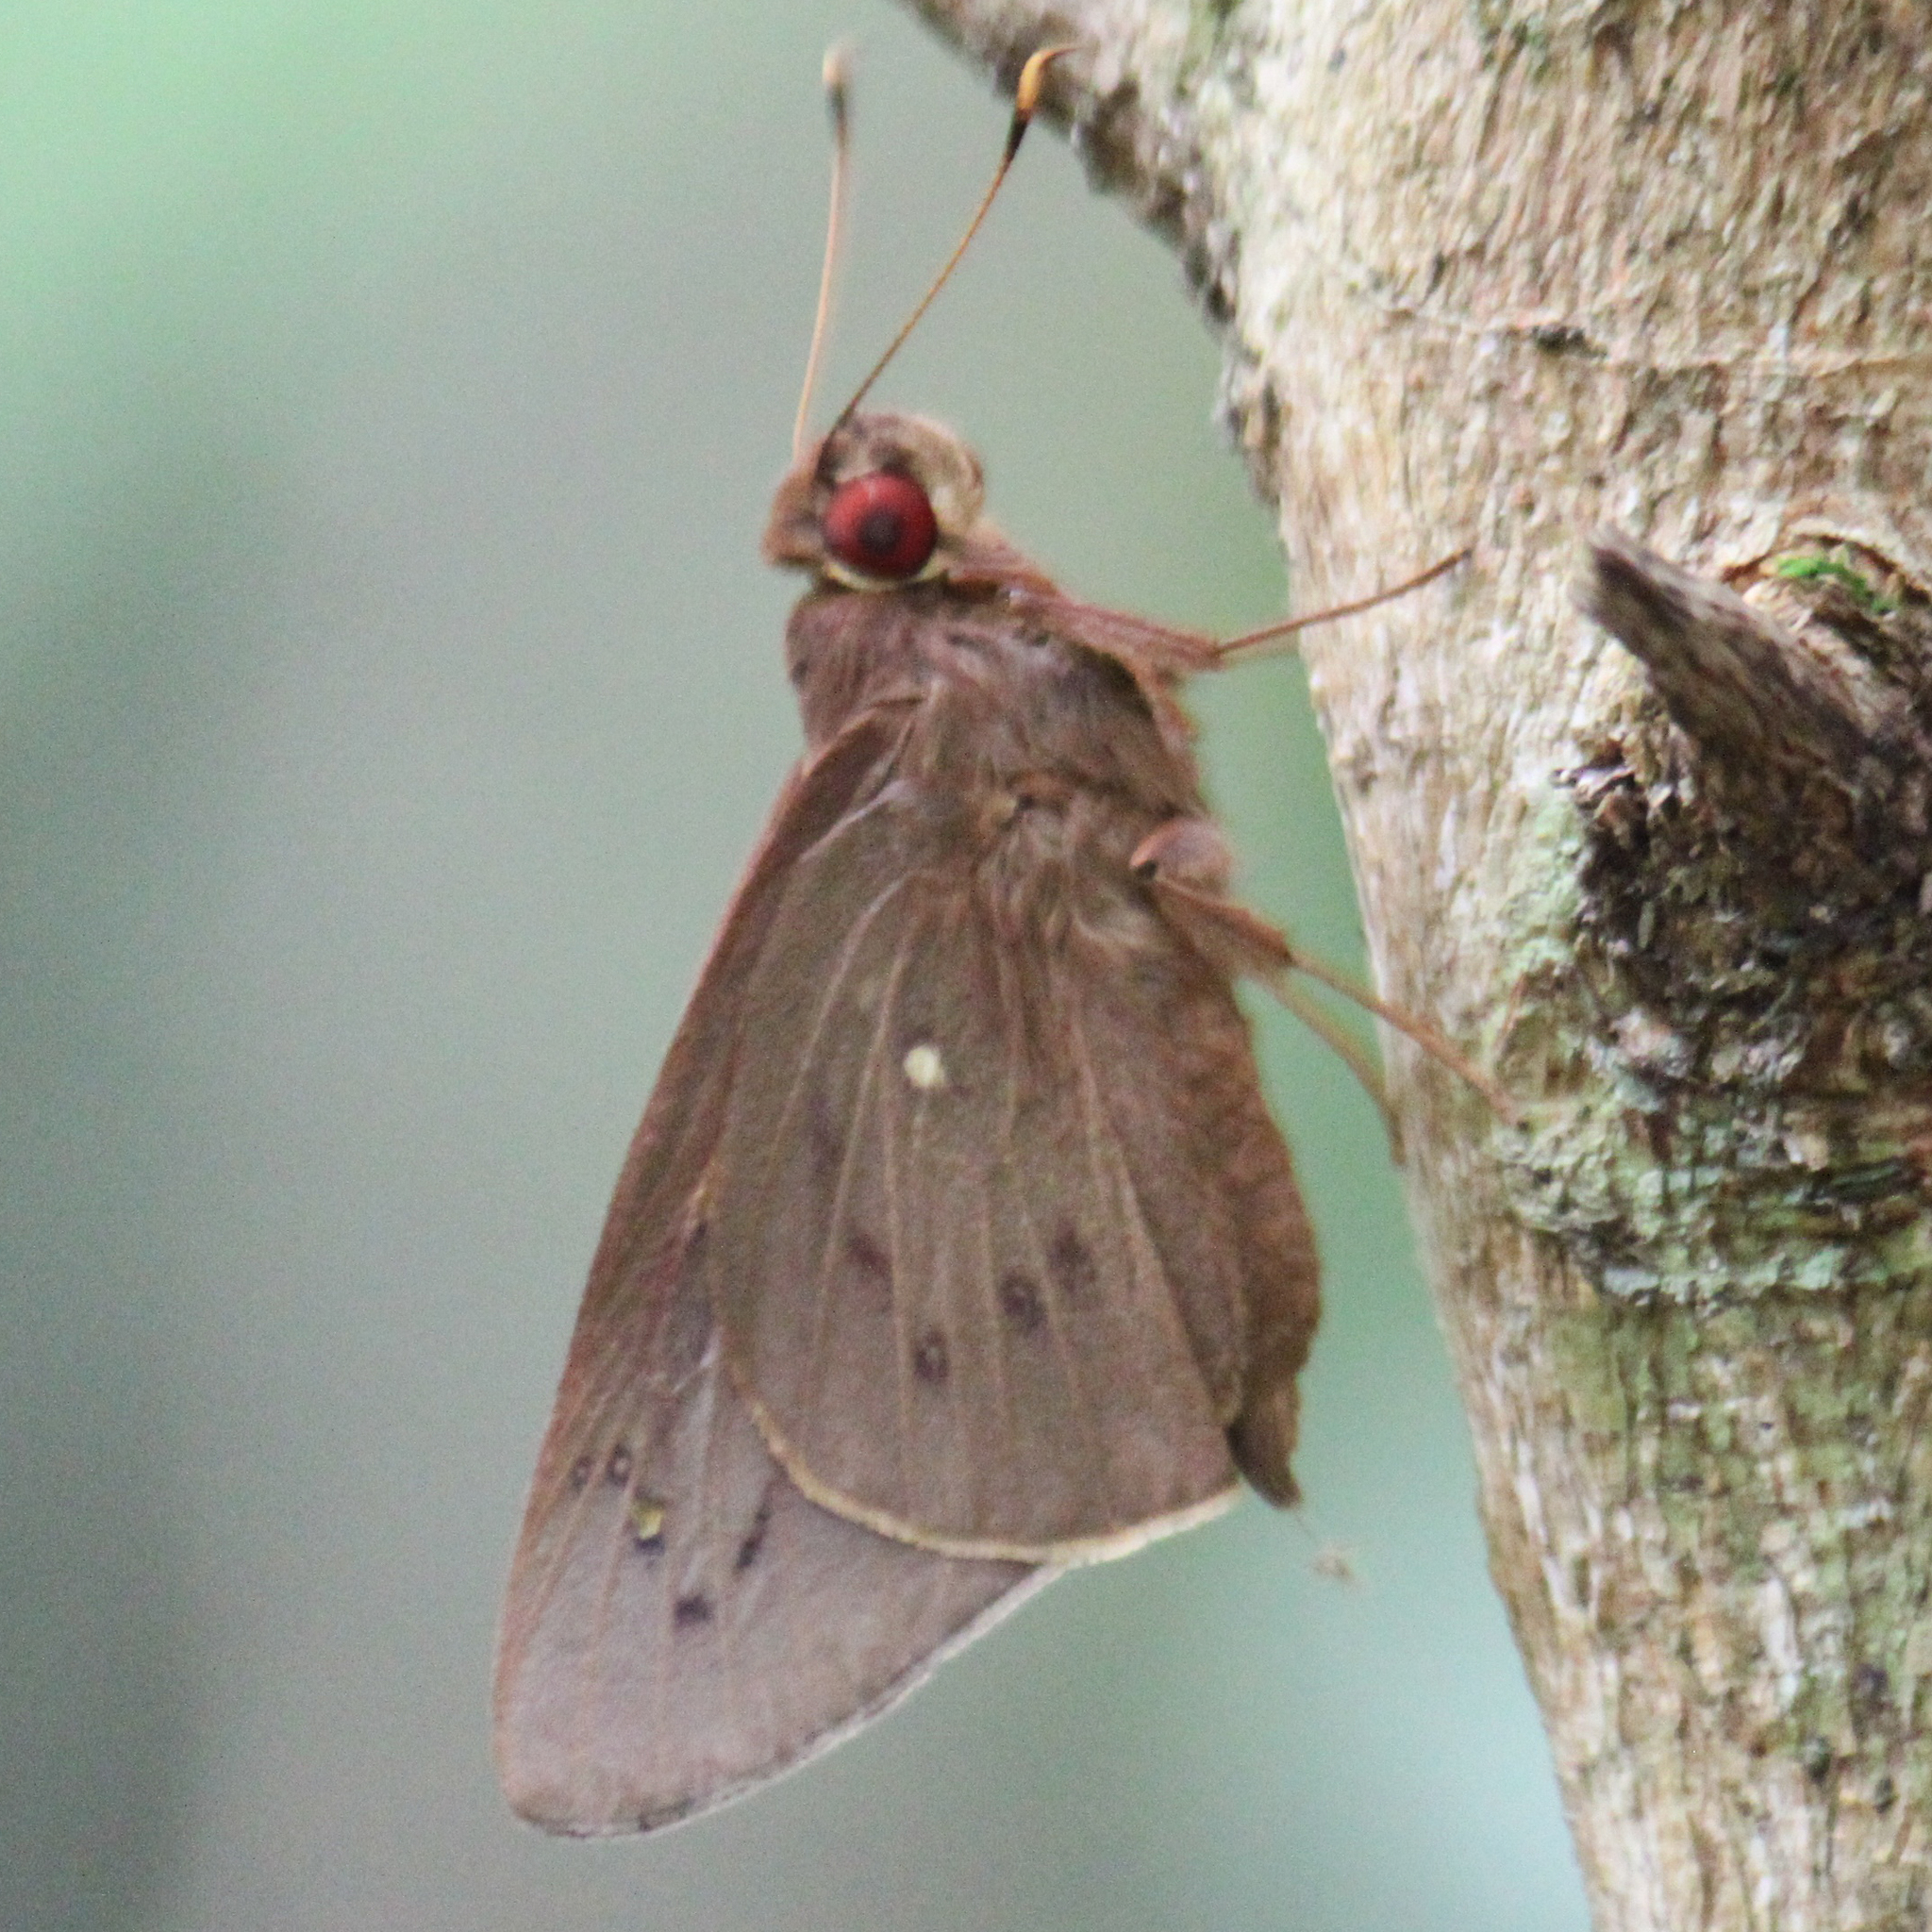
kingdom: Animalia
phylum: Arthropoda
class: Insecta
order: Lepidoptera
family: Hesperiidae
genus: Hidari
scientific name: Hidari irava
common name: Coconut skipper
